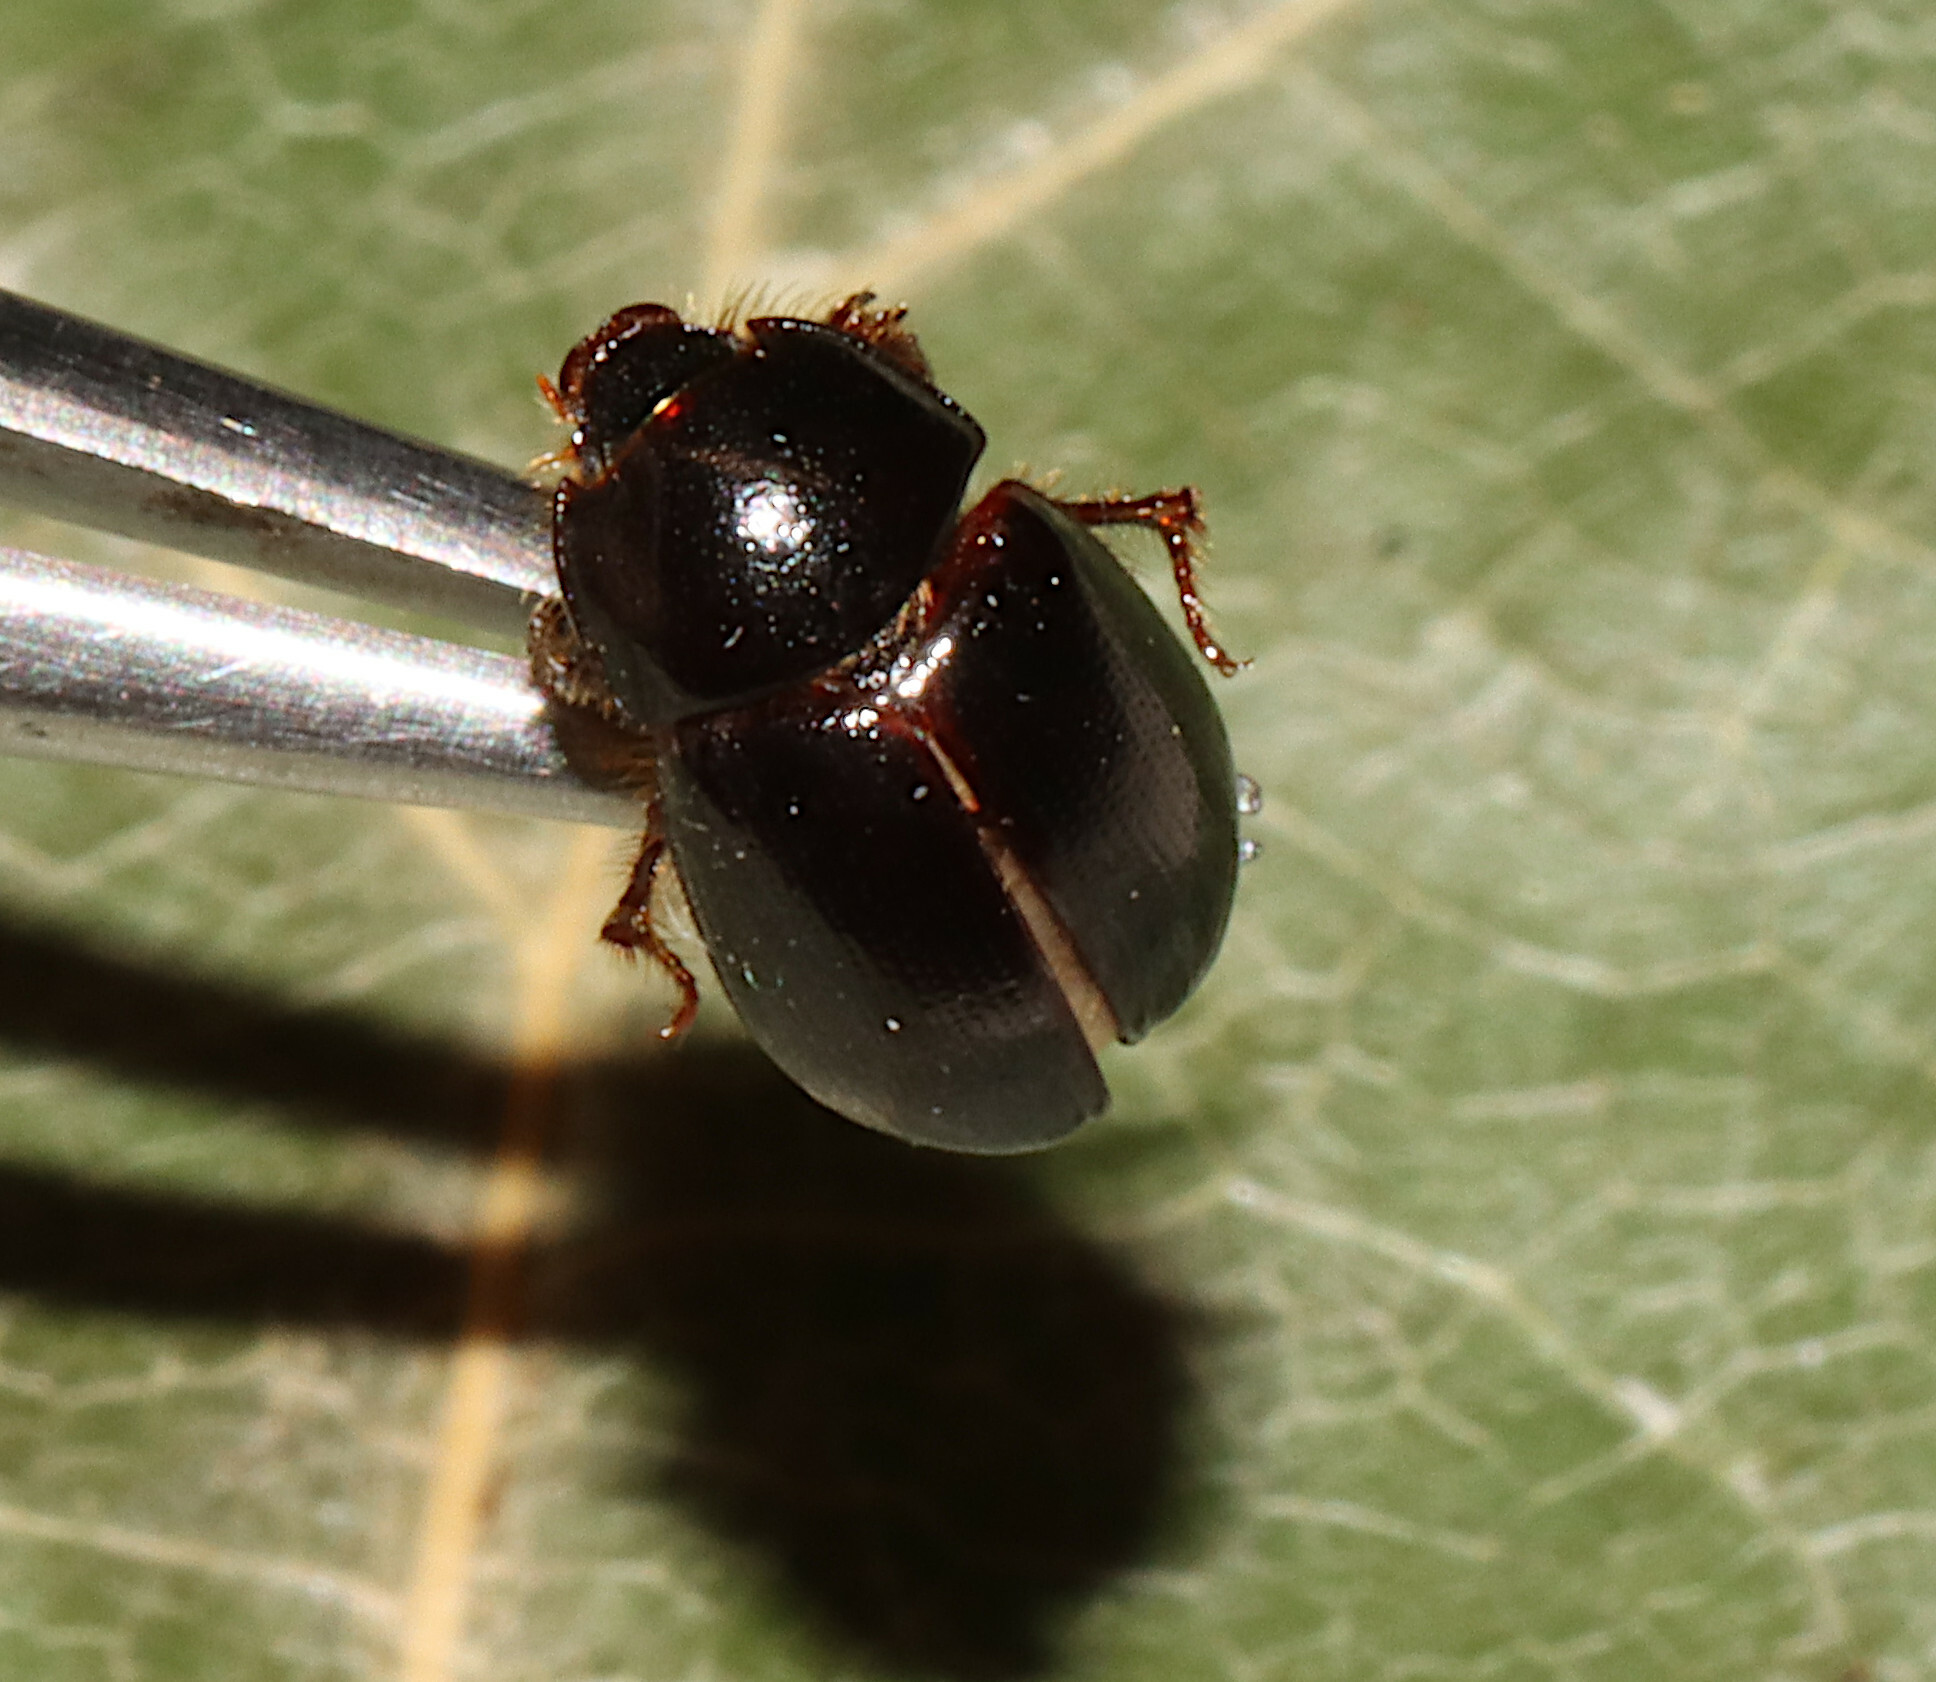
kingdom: Animalia
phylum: Arthropoda
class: Insecta
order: Coleoptera
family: Hybosoridae
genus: Hybosorus
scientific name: Hybosorus illigeri
